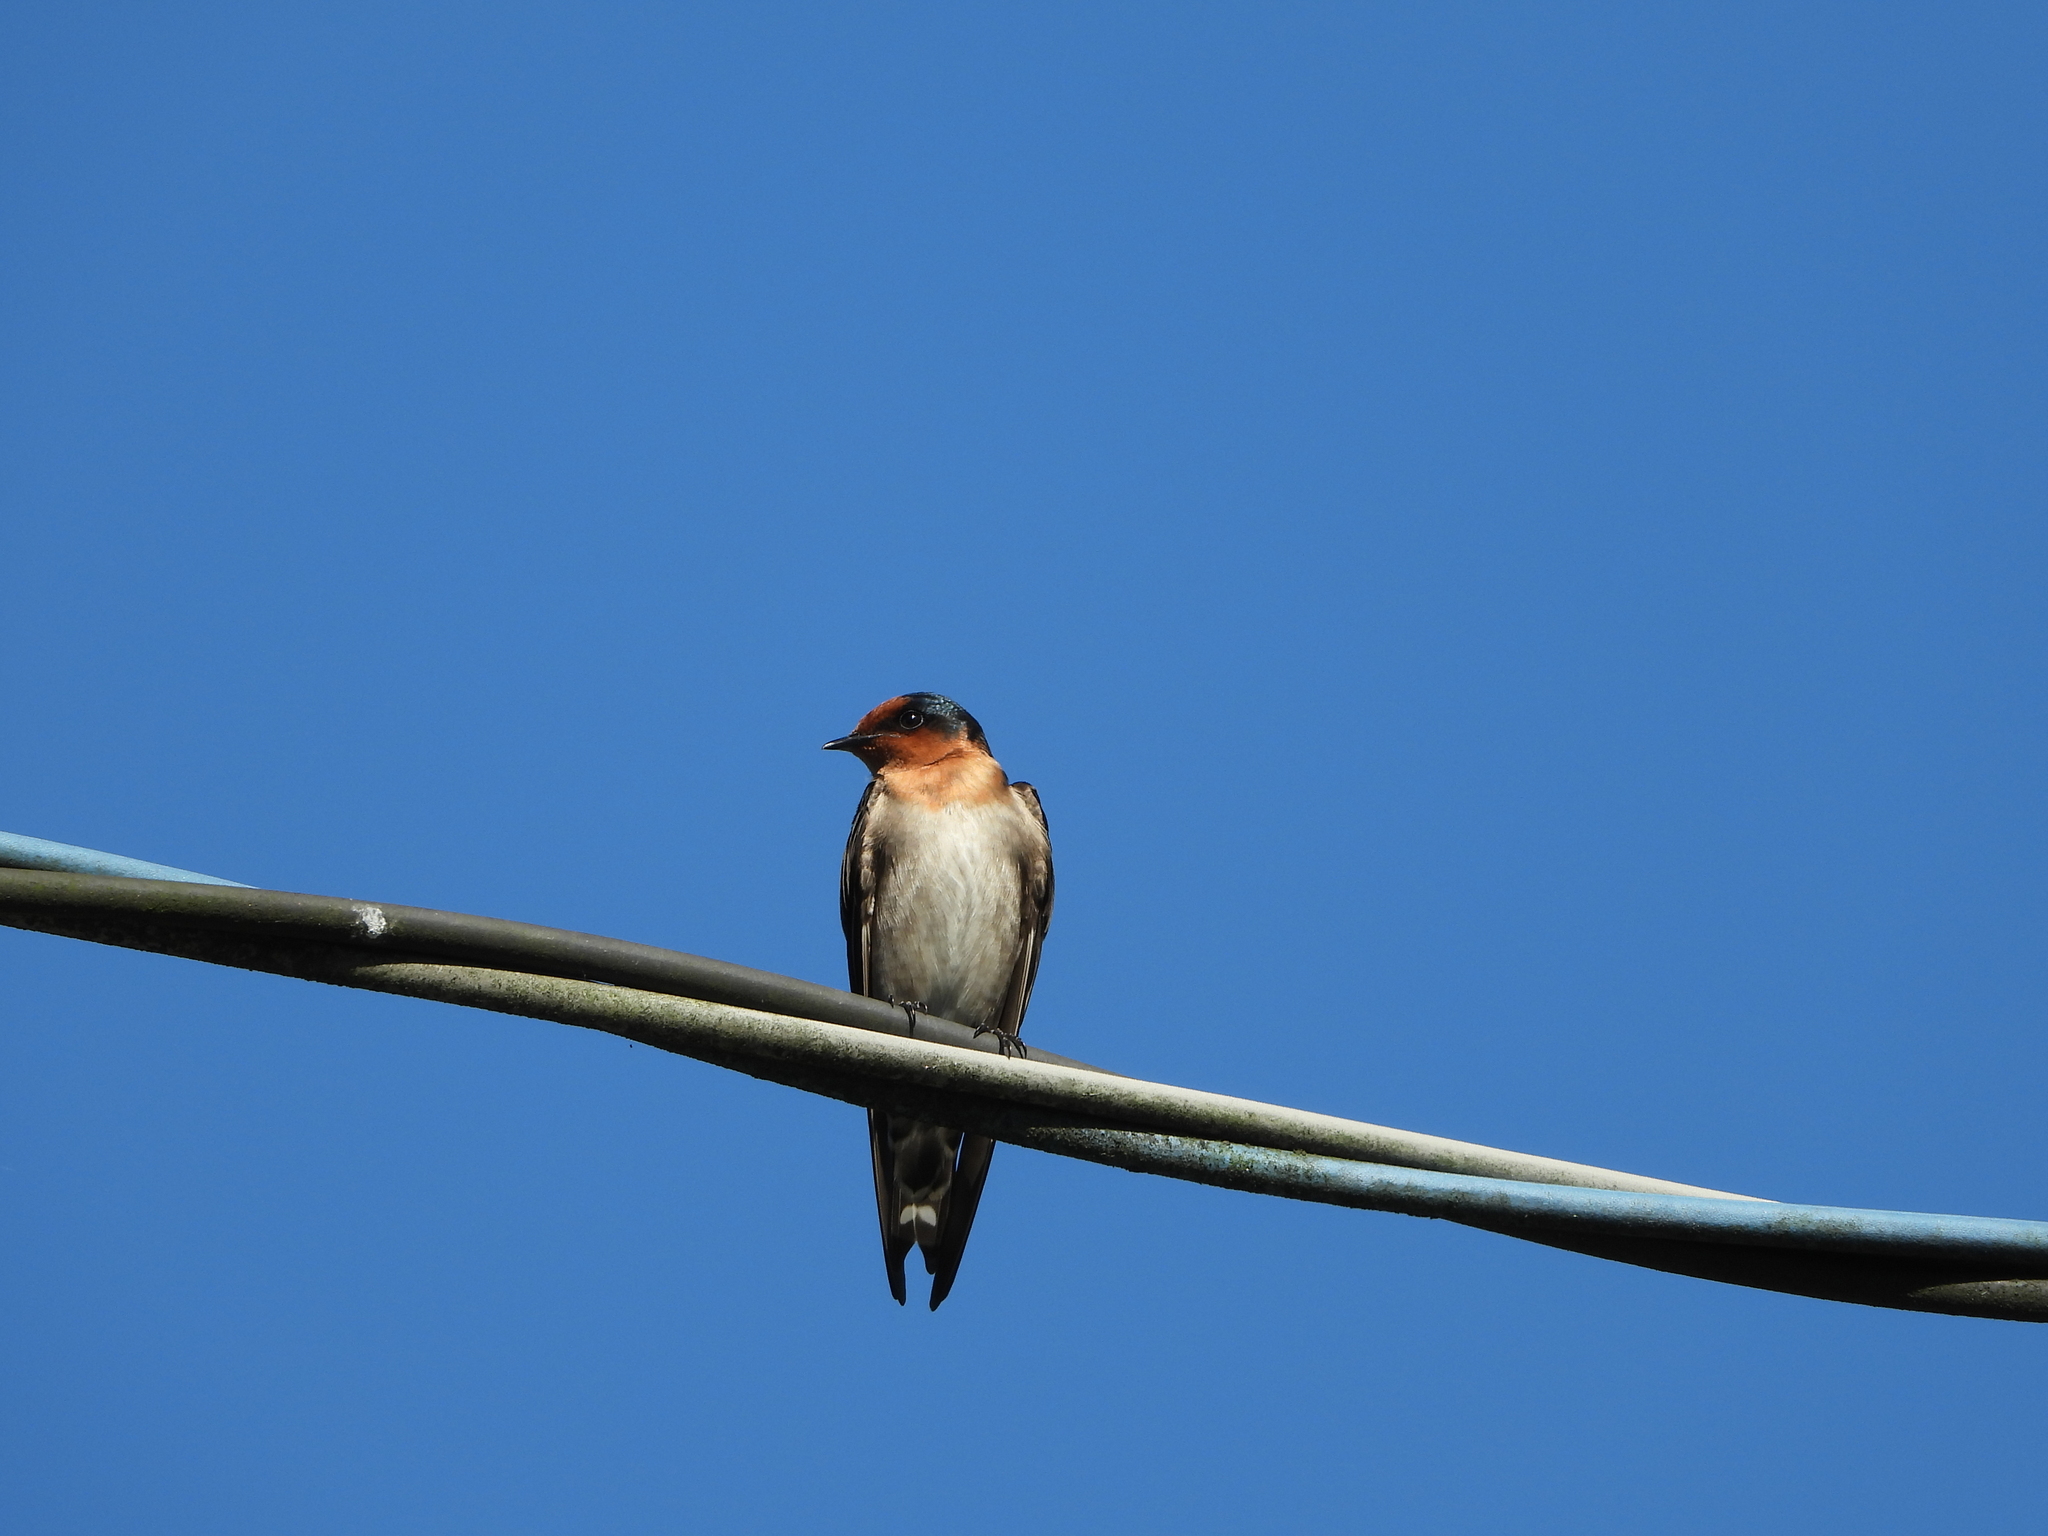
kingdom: Animalia
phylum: Chordata
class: Aves
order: Passeriformes
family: Hirundinidae
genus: Hirundo
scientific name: Hirundo tahitica
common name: Pacific swallow
